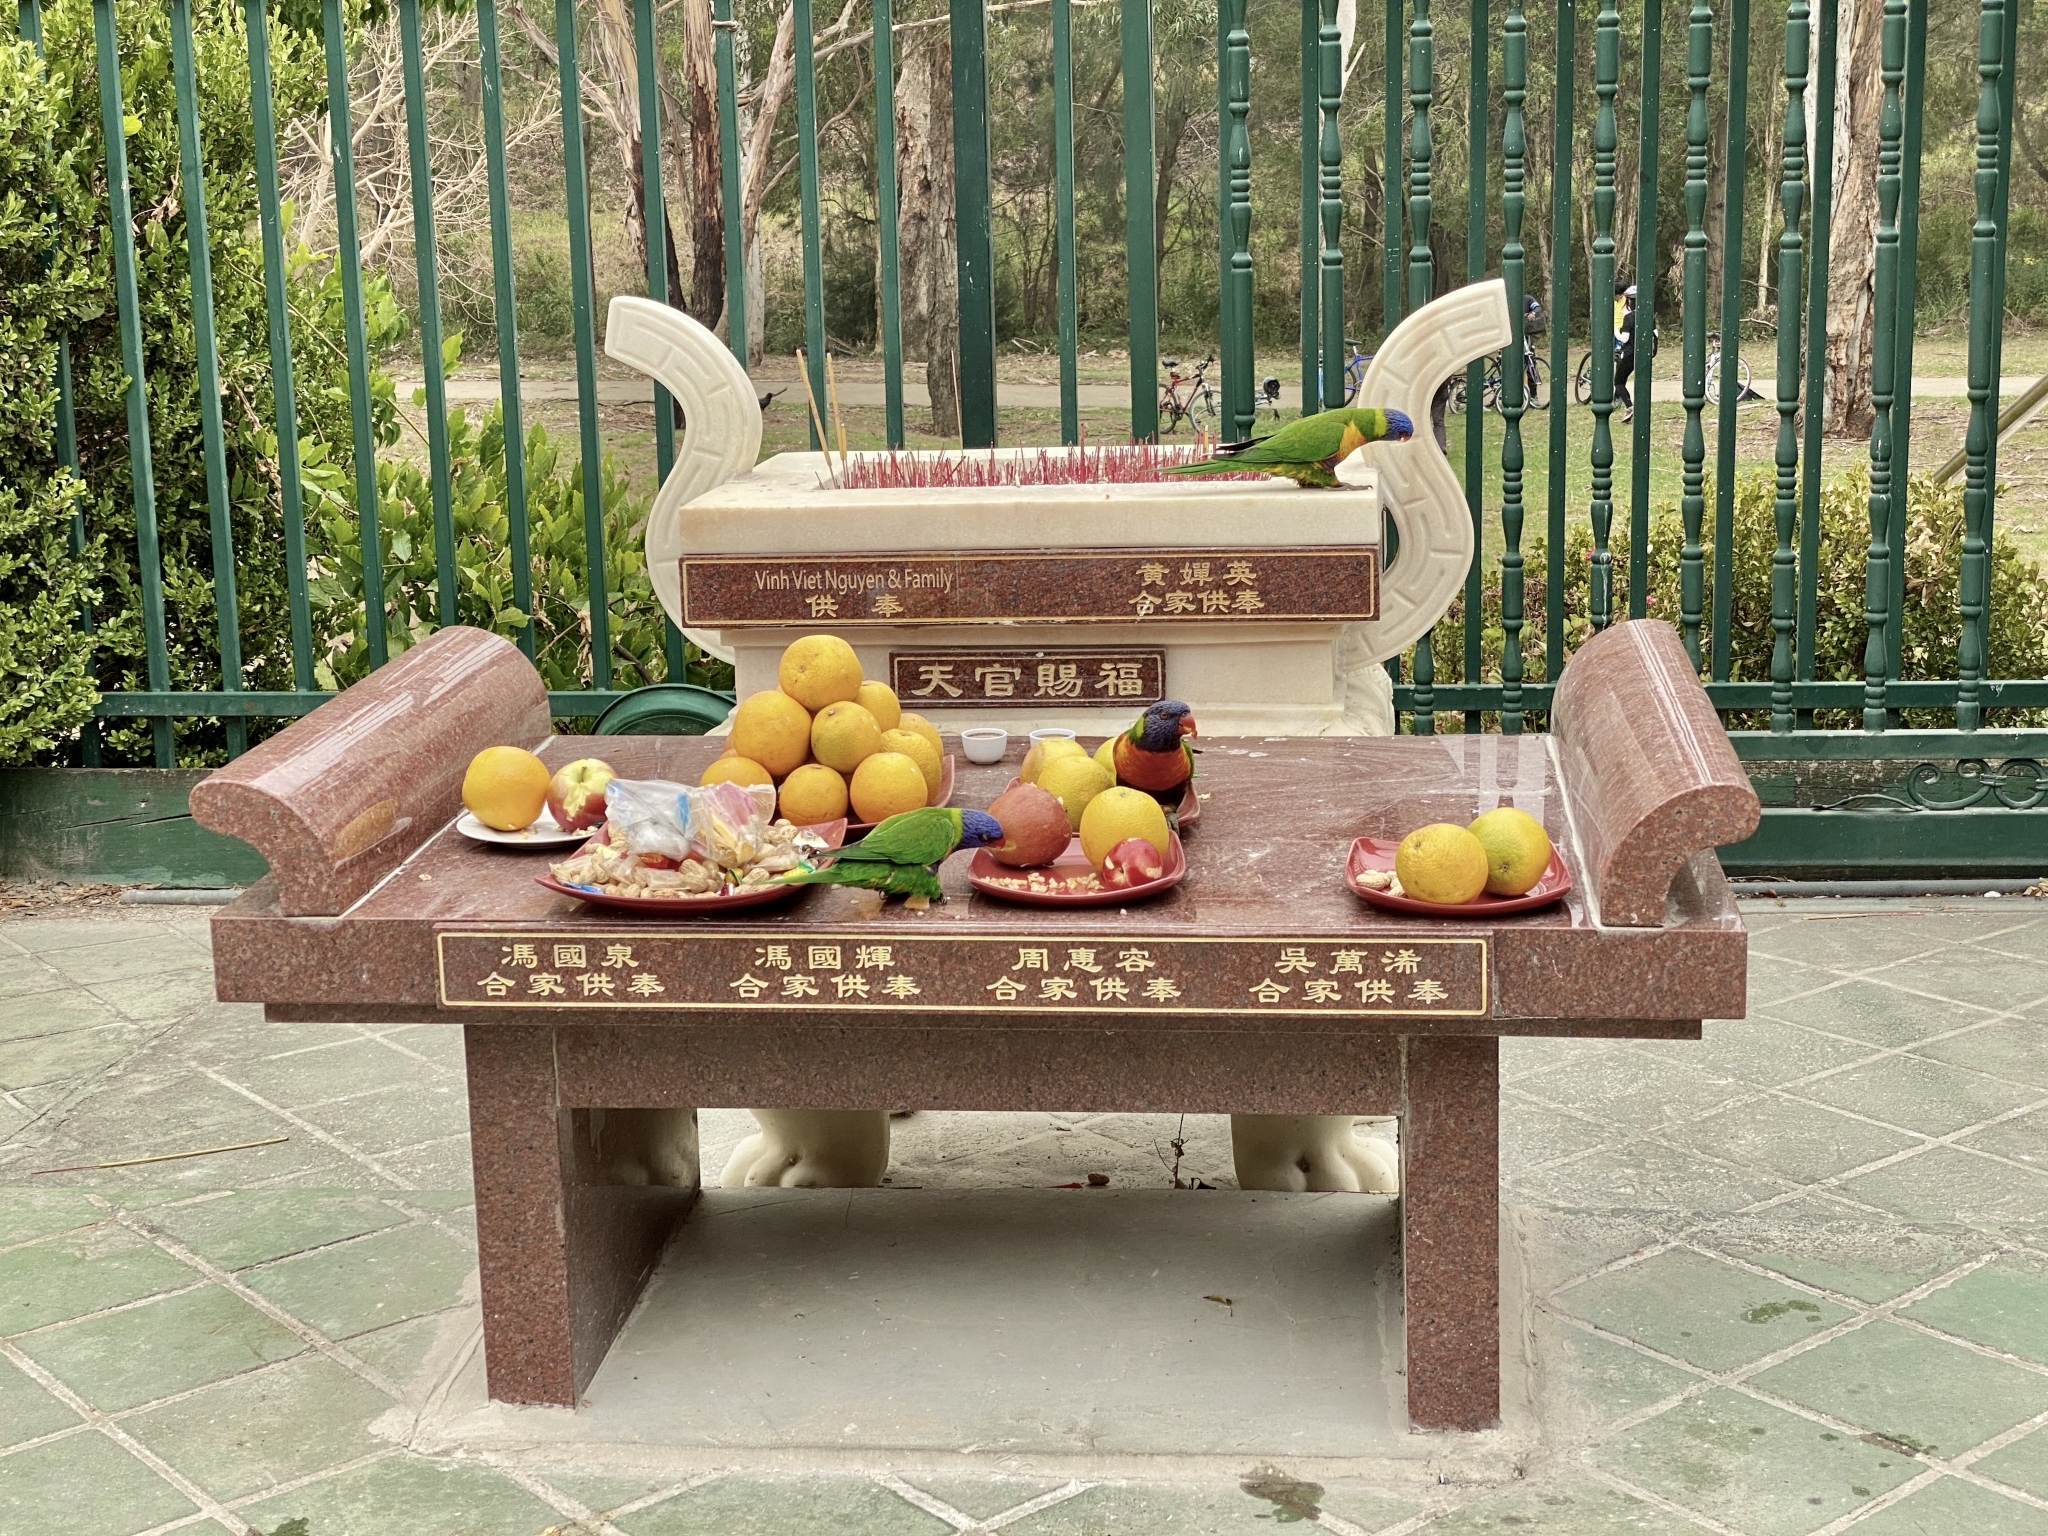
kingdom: Animalia
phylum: Chordata
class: Aves
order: Psittaciformes
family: Psittacidae
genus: Trichoglossus
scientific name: Trichoglossus haematodus
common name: Coconut lorikeet
